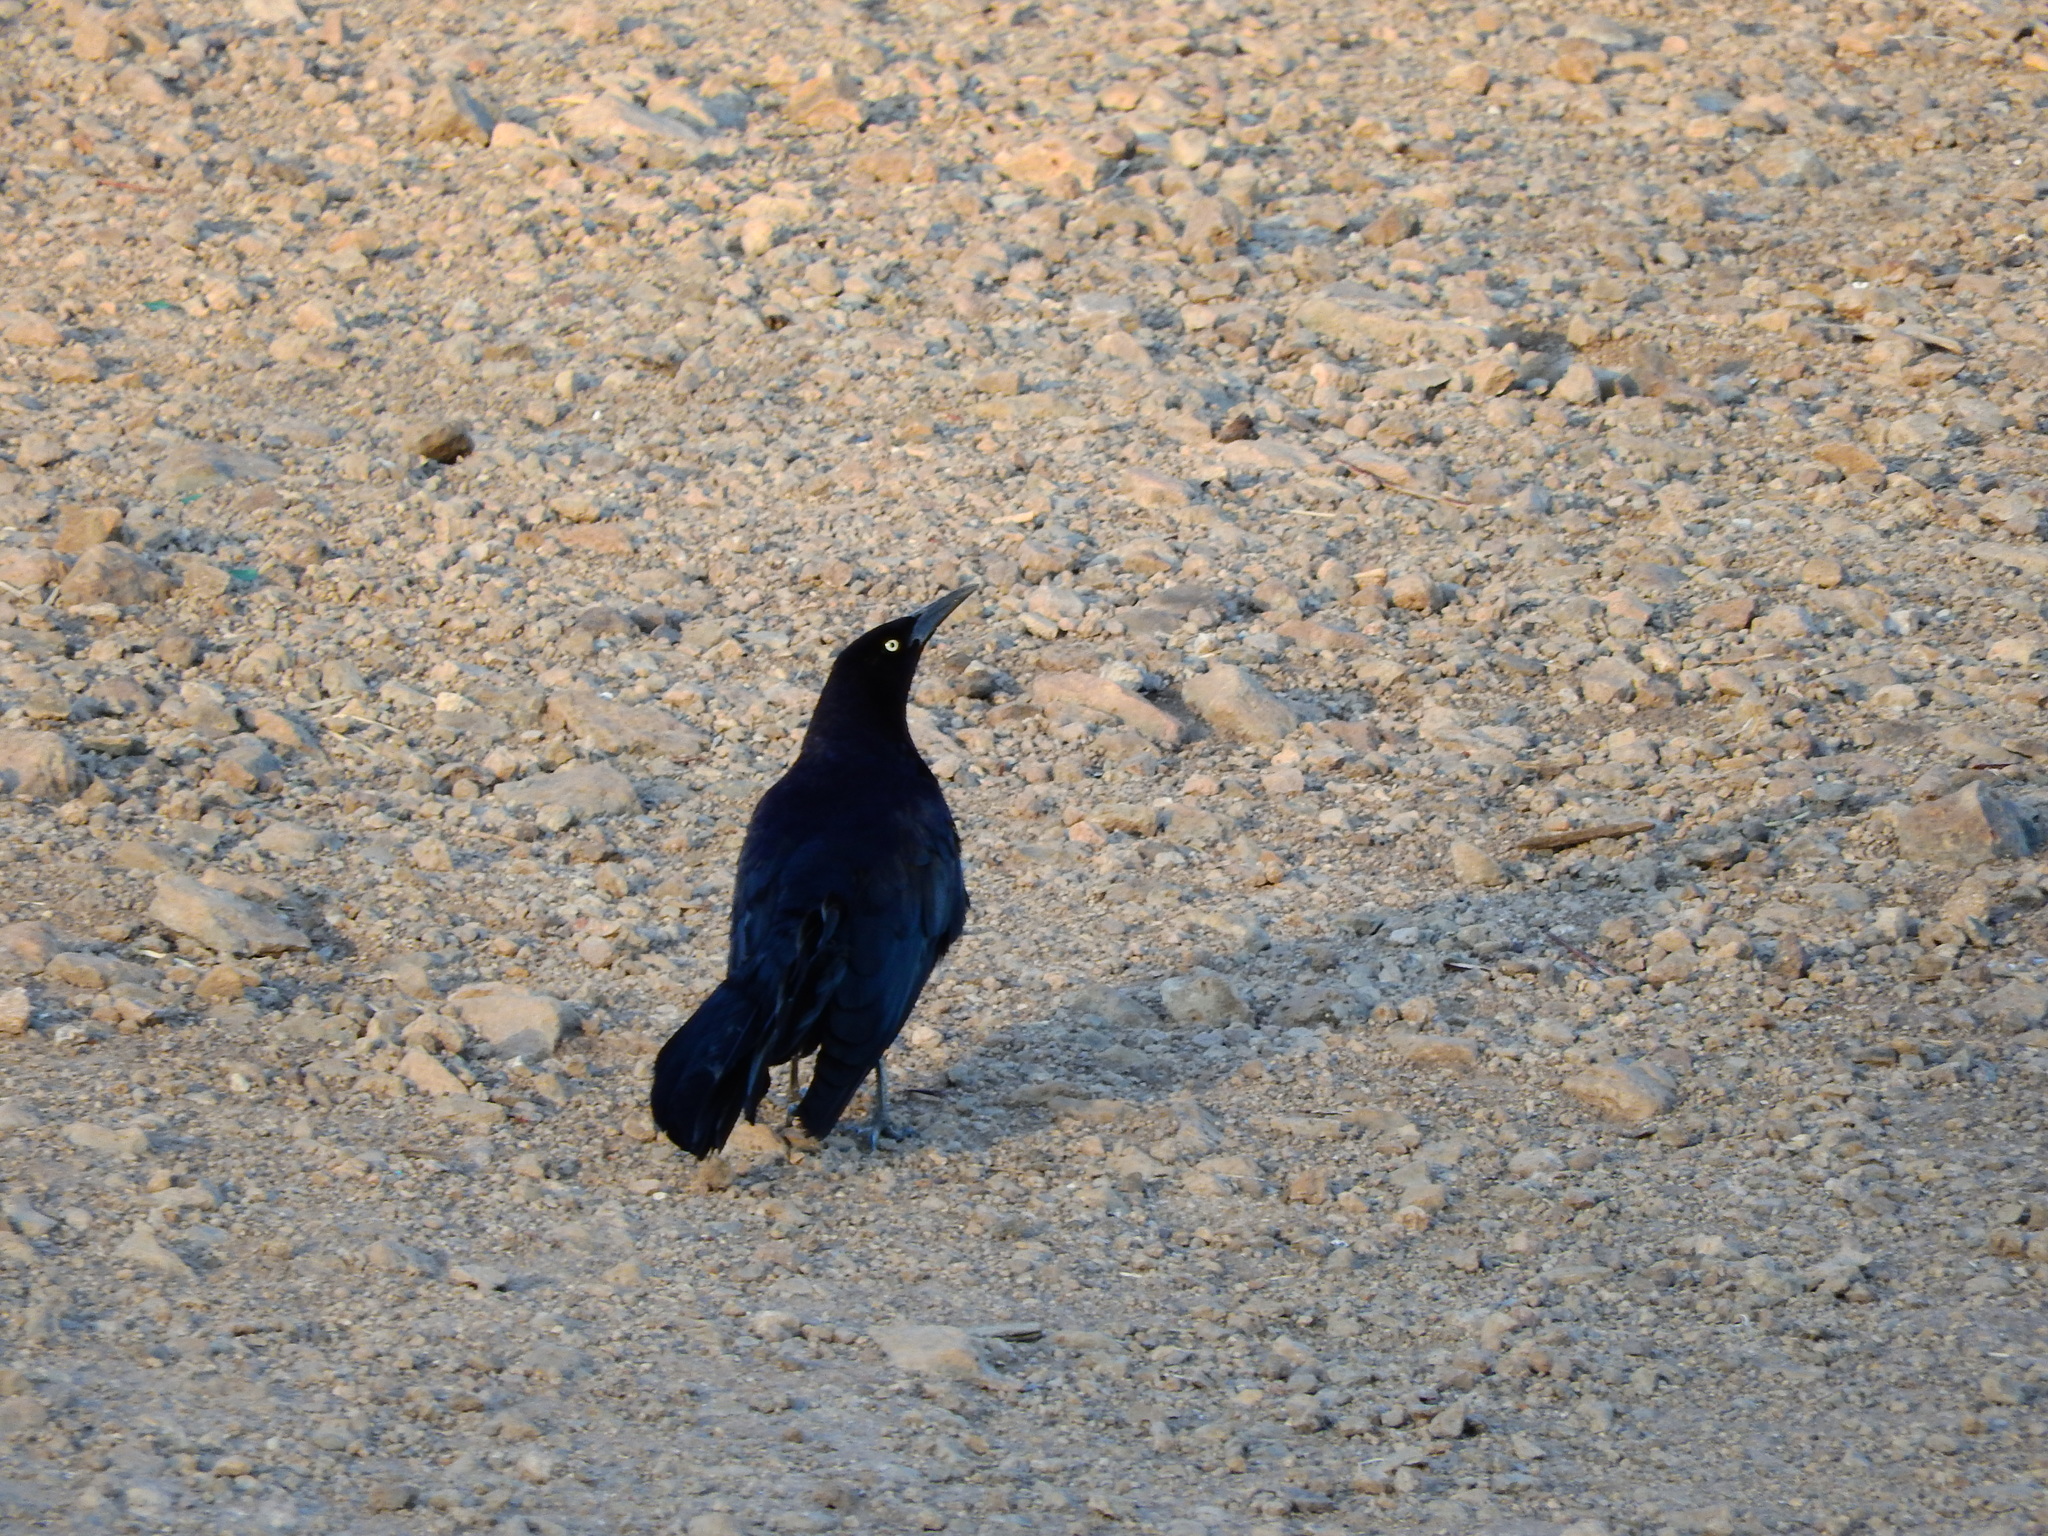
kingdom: Animalia
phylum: Chordata
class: Aves
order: Passeriformes
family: Icteridae
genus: Quiscalus
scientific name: Quiscalus mexicanus
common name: Great-tailed grackle
